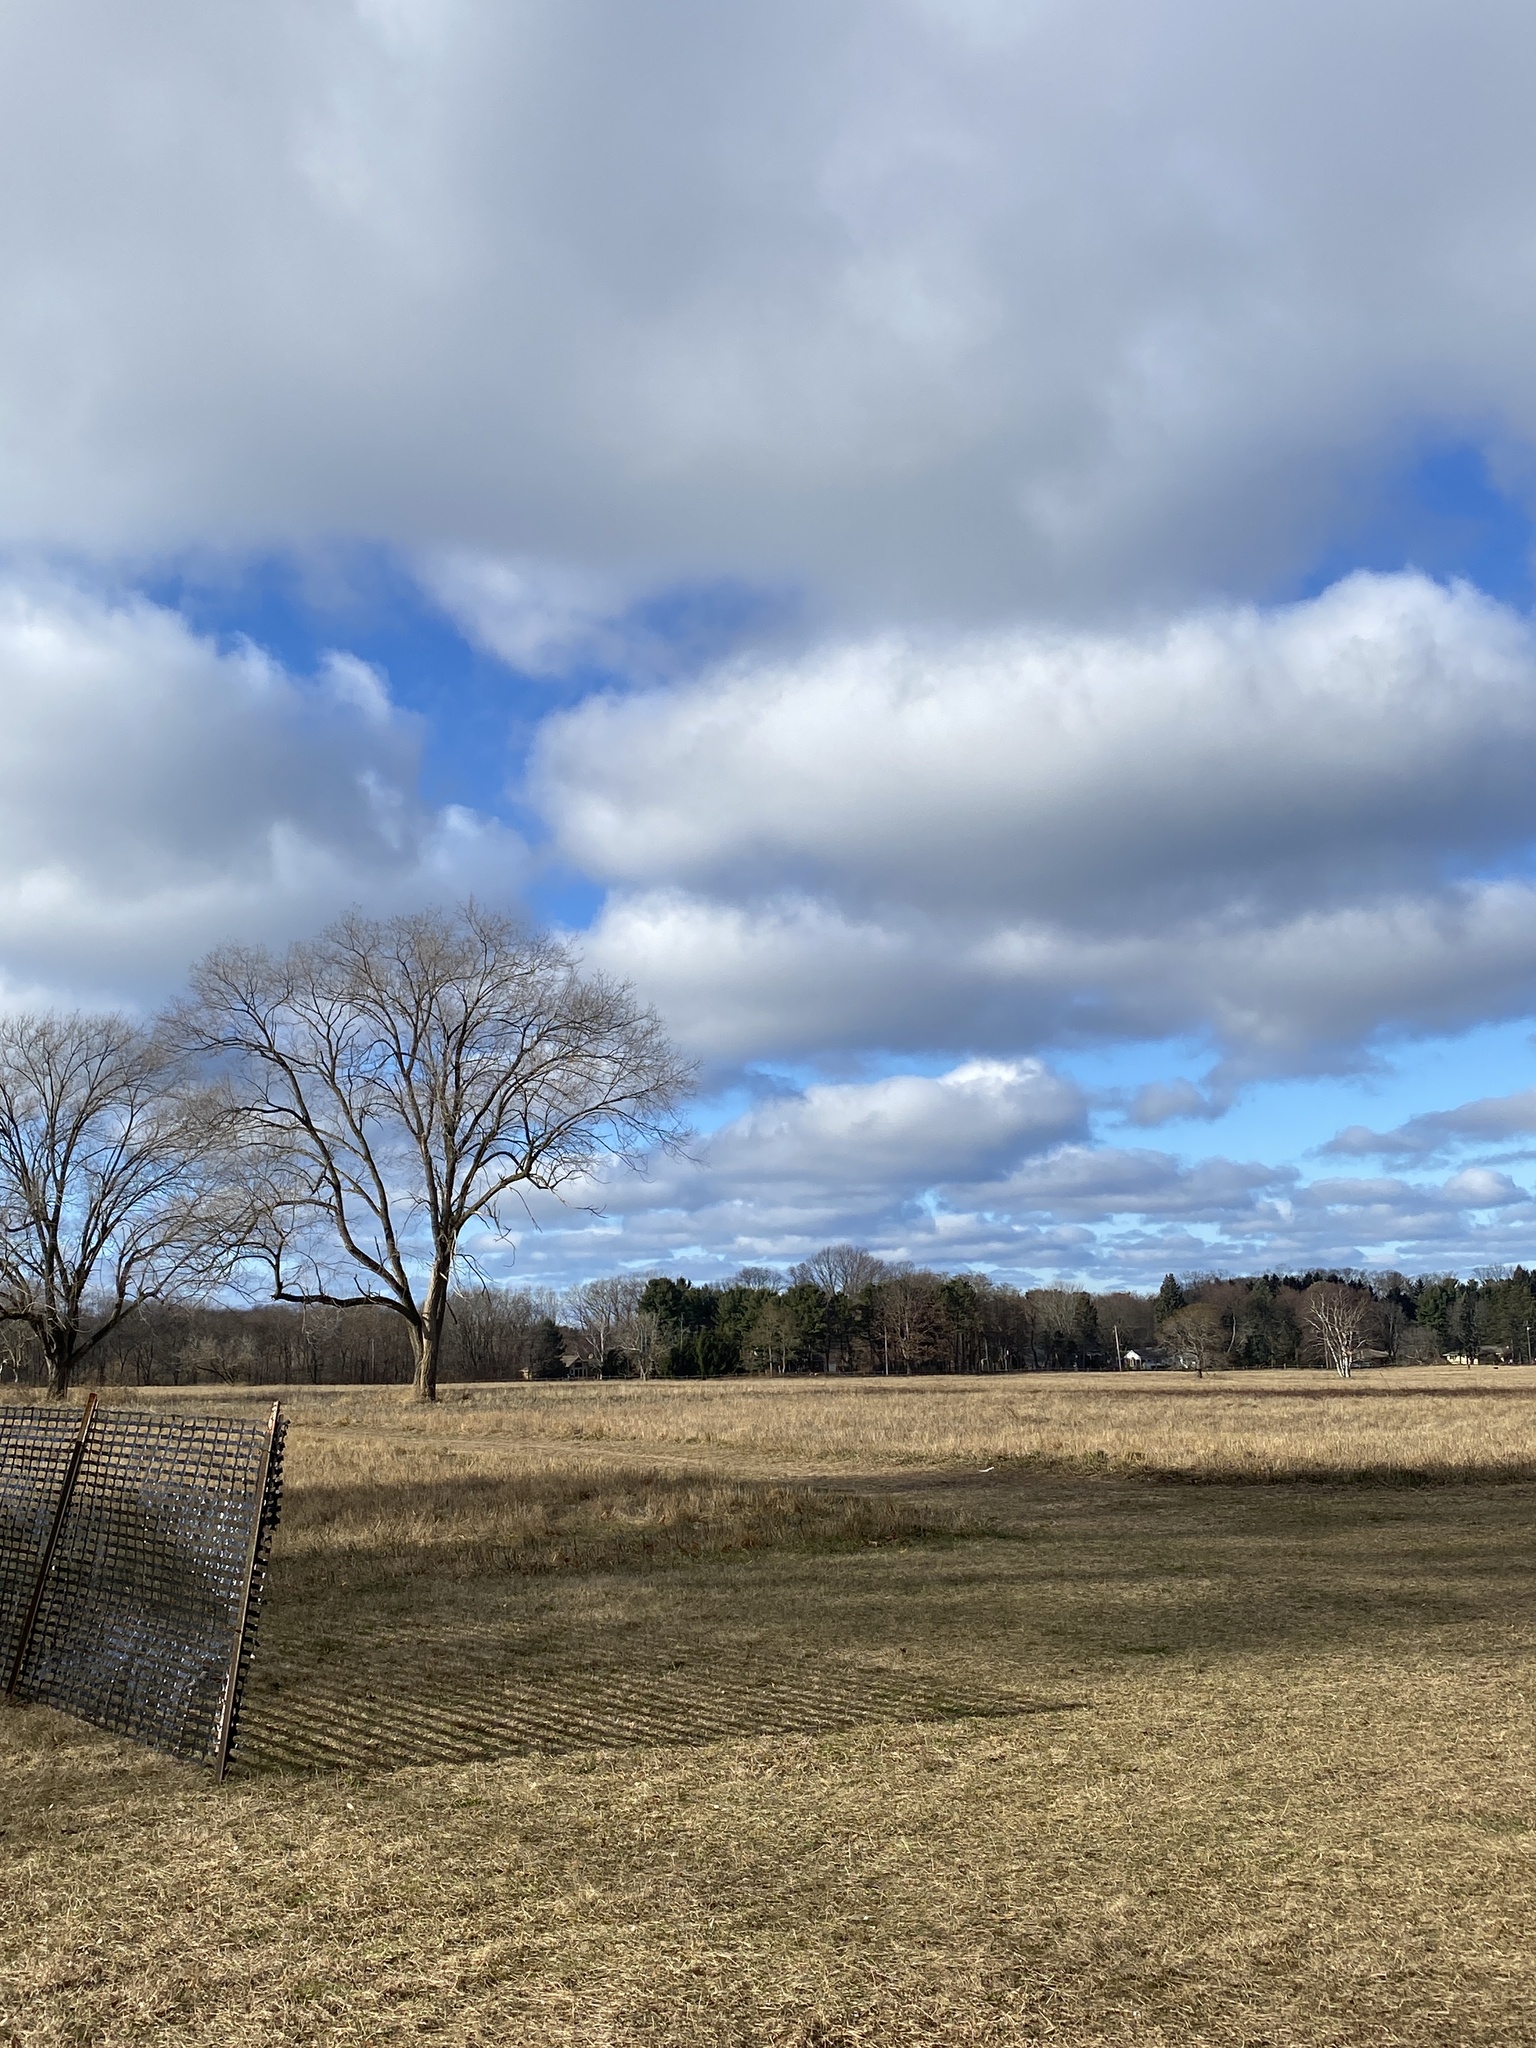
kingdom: Plantae
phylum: Tracheophyta
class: Liliopsida
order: Asparagales
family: Amaryllidaceae
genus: Allium
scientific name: Allium vineale
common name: Crow garlic
